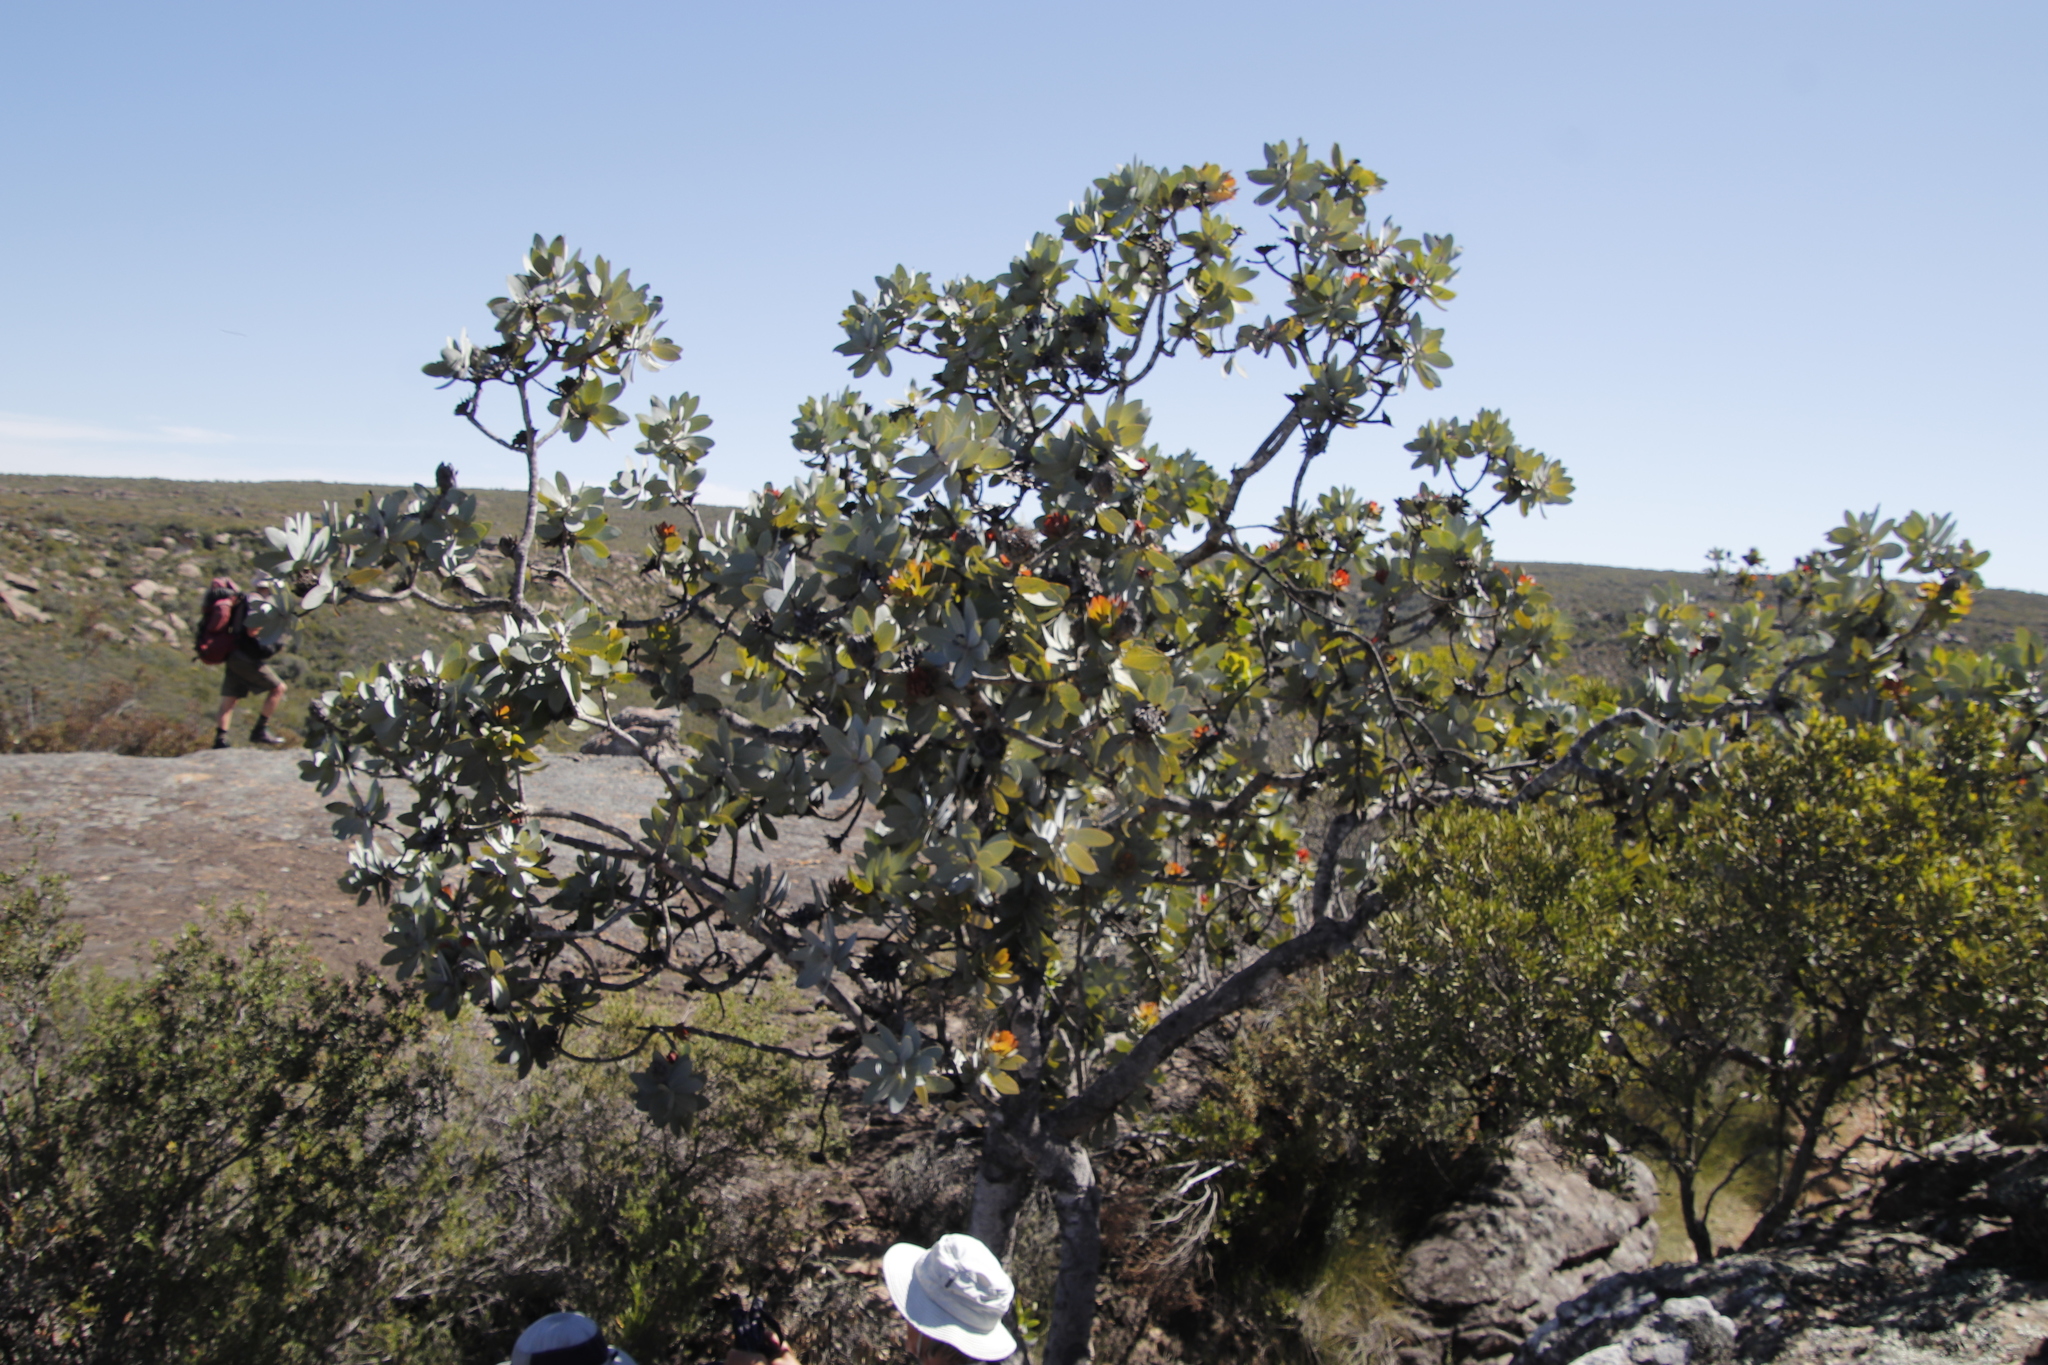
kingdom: Plantae
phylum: Tracheophyta
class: Magnoliopsida
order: Proteales
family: Proteaceae
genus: Protea
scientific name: Protea nitida
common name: Tree protea
